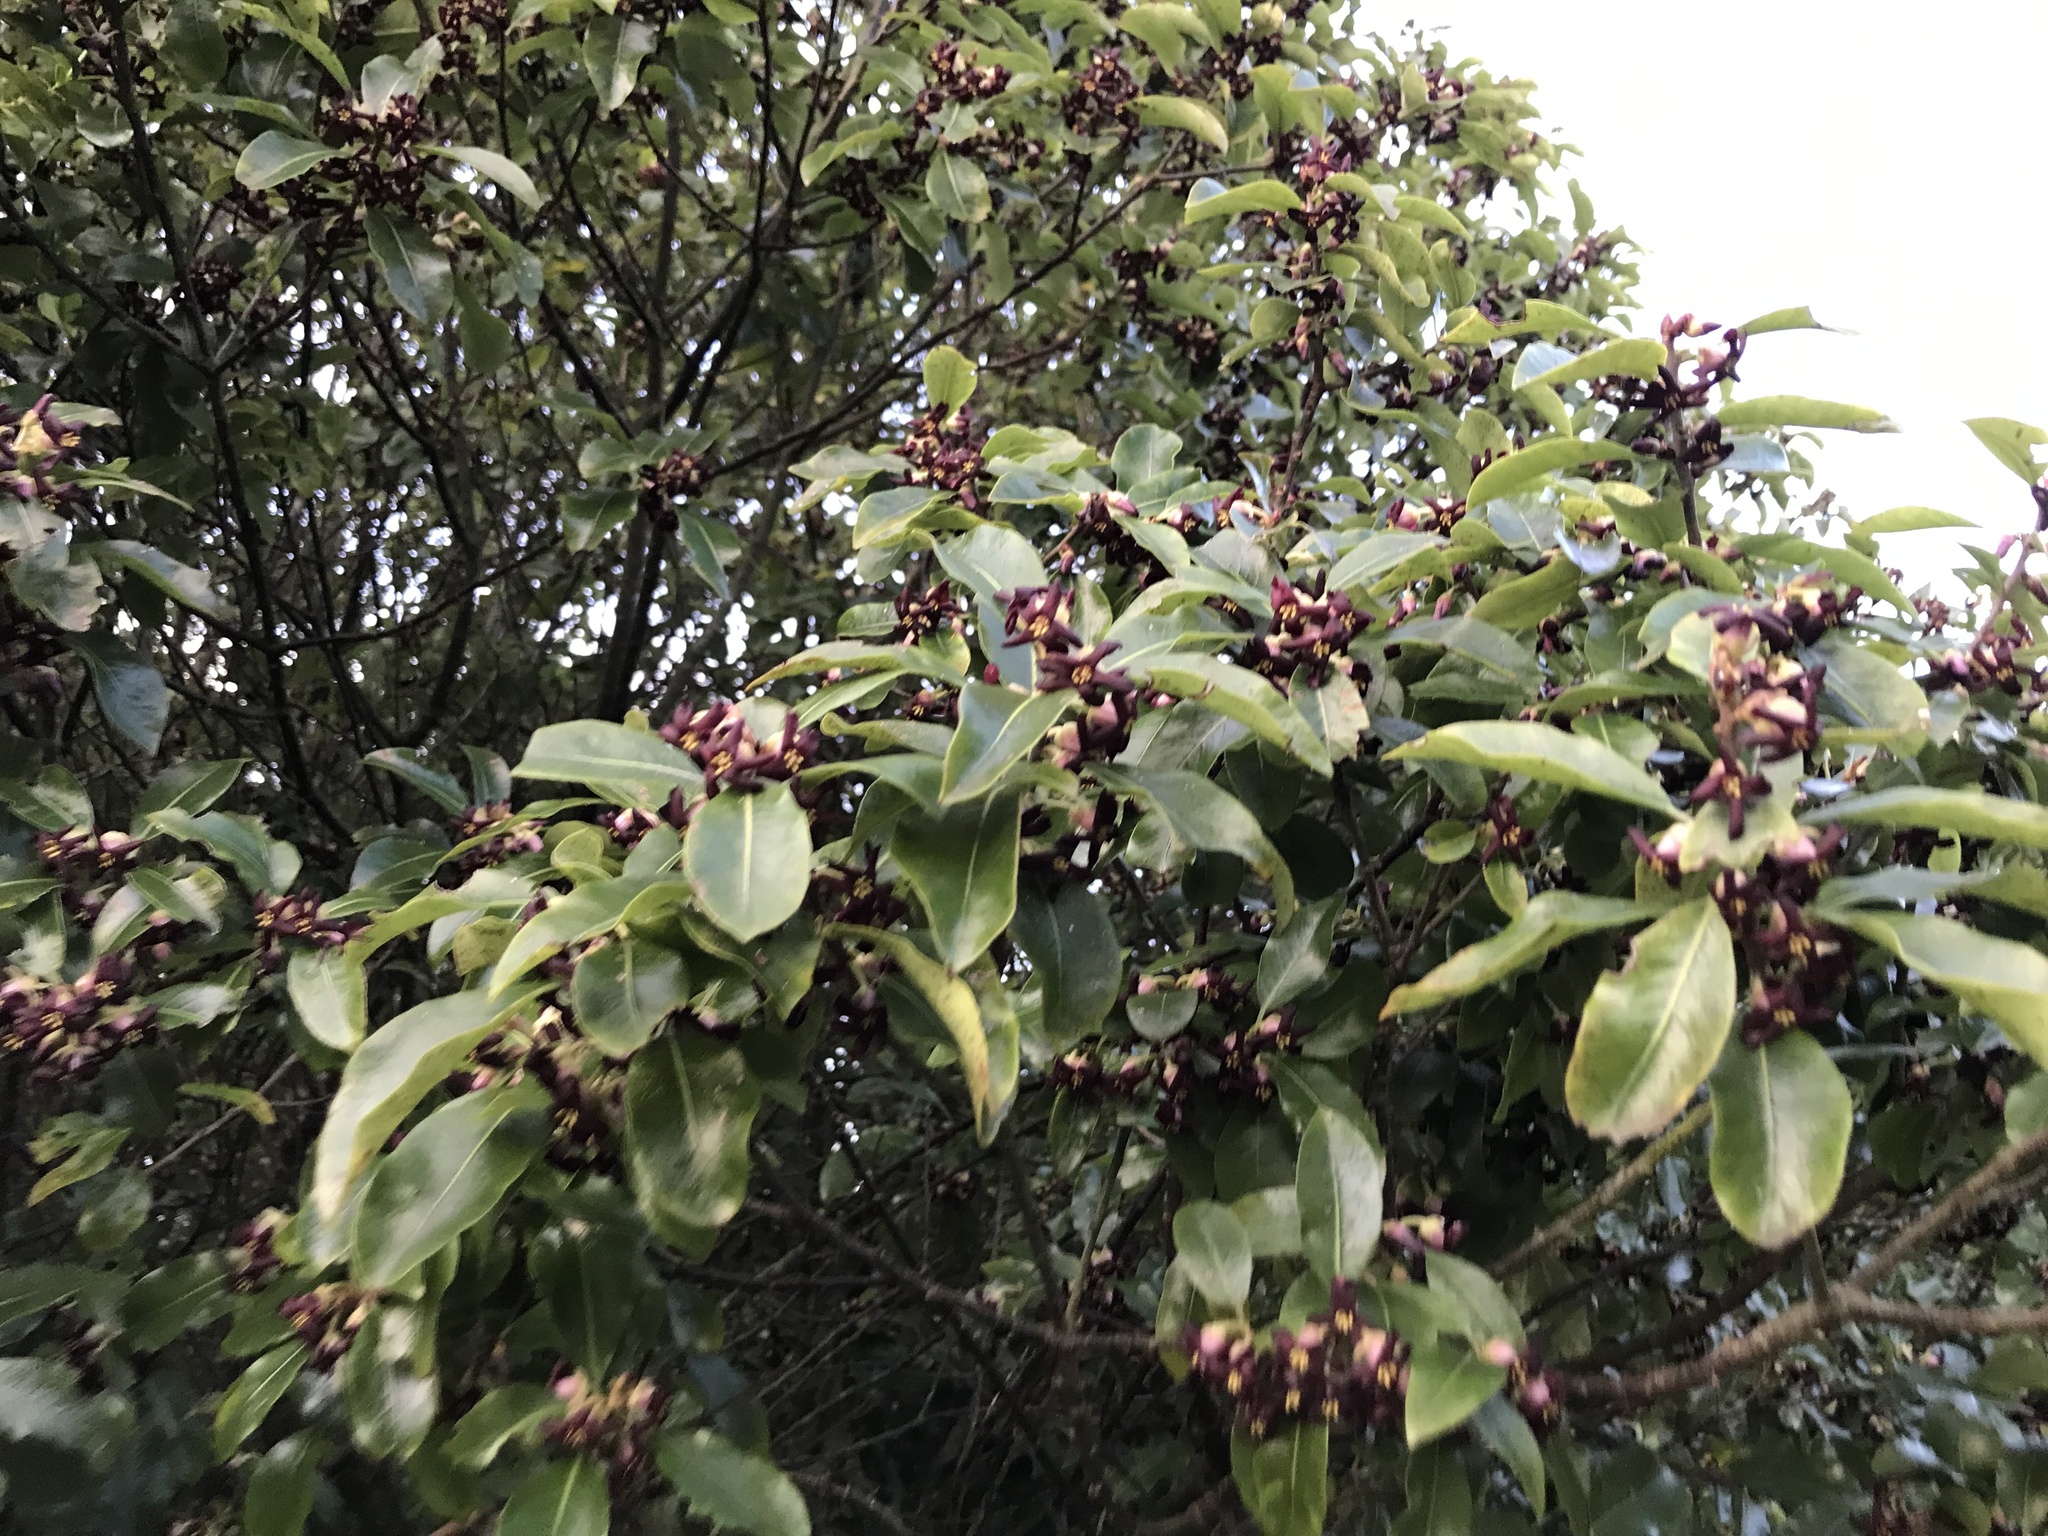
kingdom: Plantae
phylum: Tracheophyta
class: Magnoliopsida
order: Apiales
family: Pittosporaceae
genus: Pittosporum
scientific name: Pittosporum tenuifolium
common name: Kohuhu
